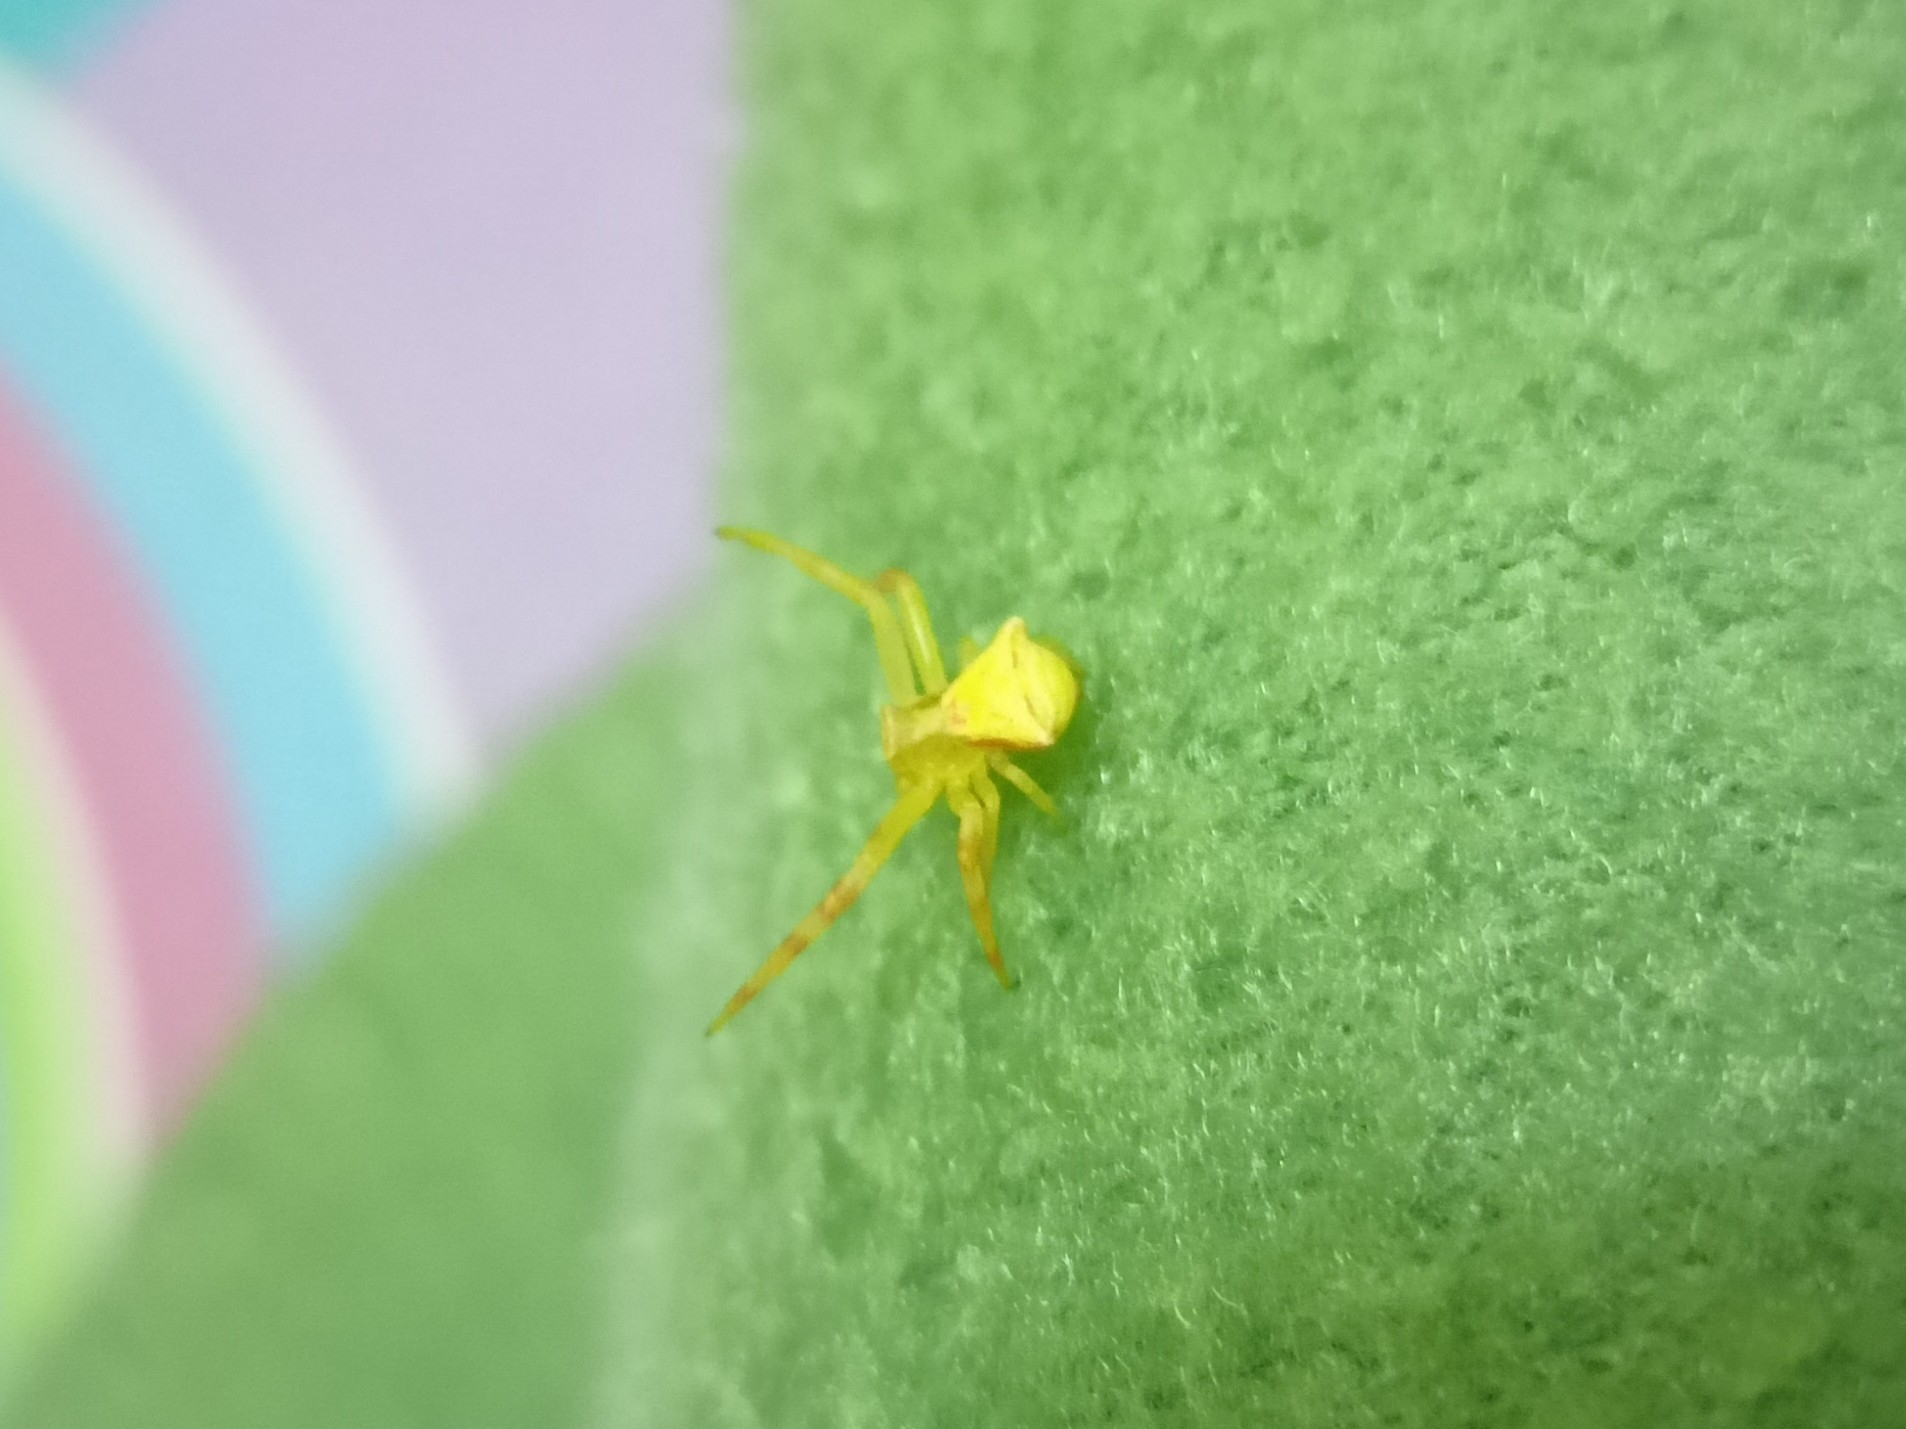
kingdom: Animalia
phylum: Arthropoda
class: Arachnida
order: Araneae
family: Thomisidae
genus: Thomisus
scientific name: Thomisus onustus
